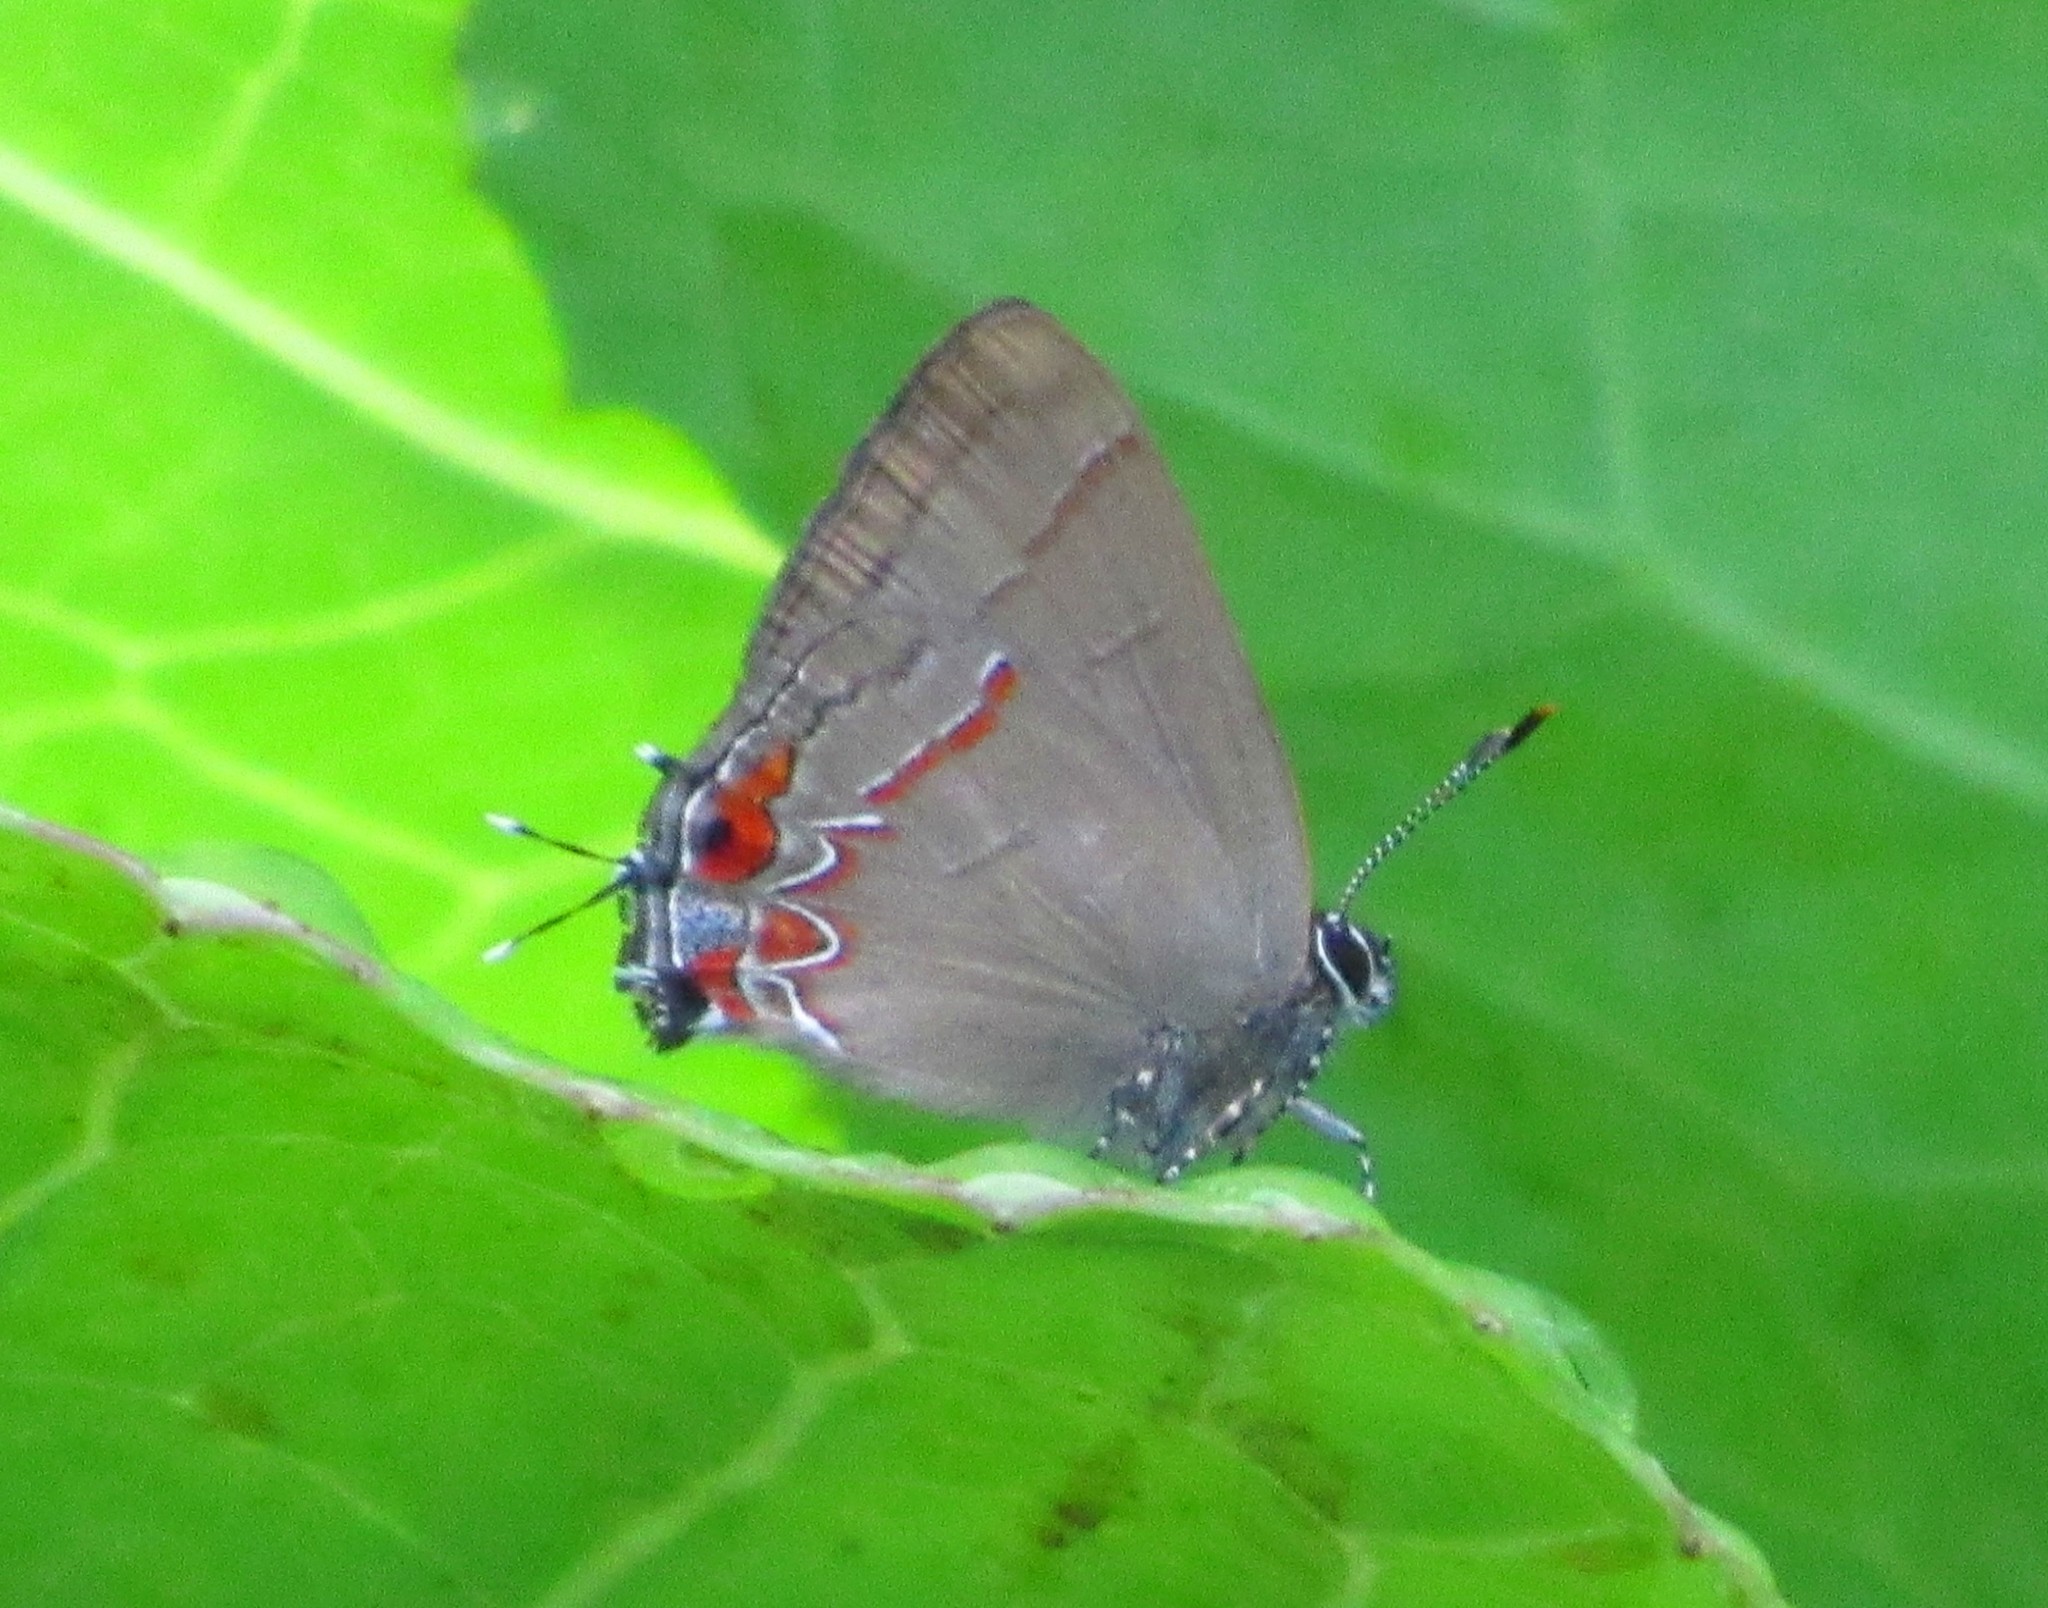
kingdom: Animalia
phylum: Arthropoda
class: Insecta
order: Lepidoptera
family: Lycaenidae
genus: Calycopis
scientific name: Calycopis isobeon
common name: Dusky-blue groundstreak
